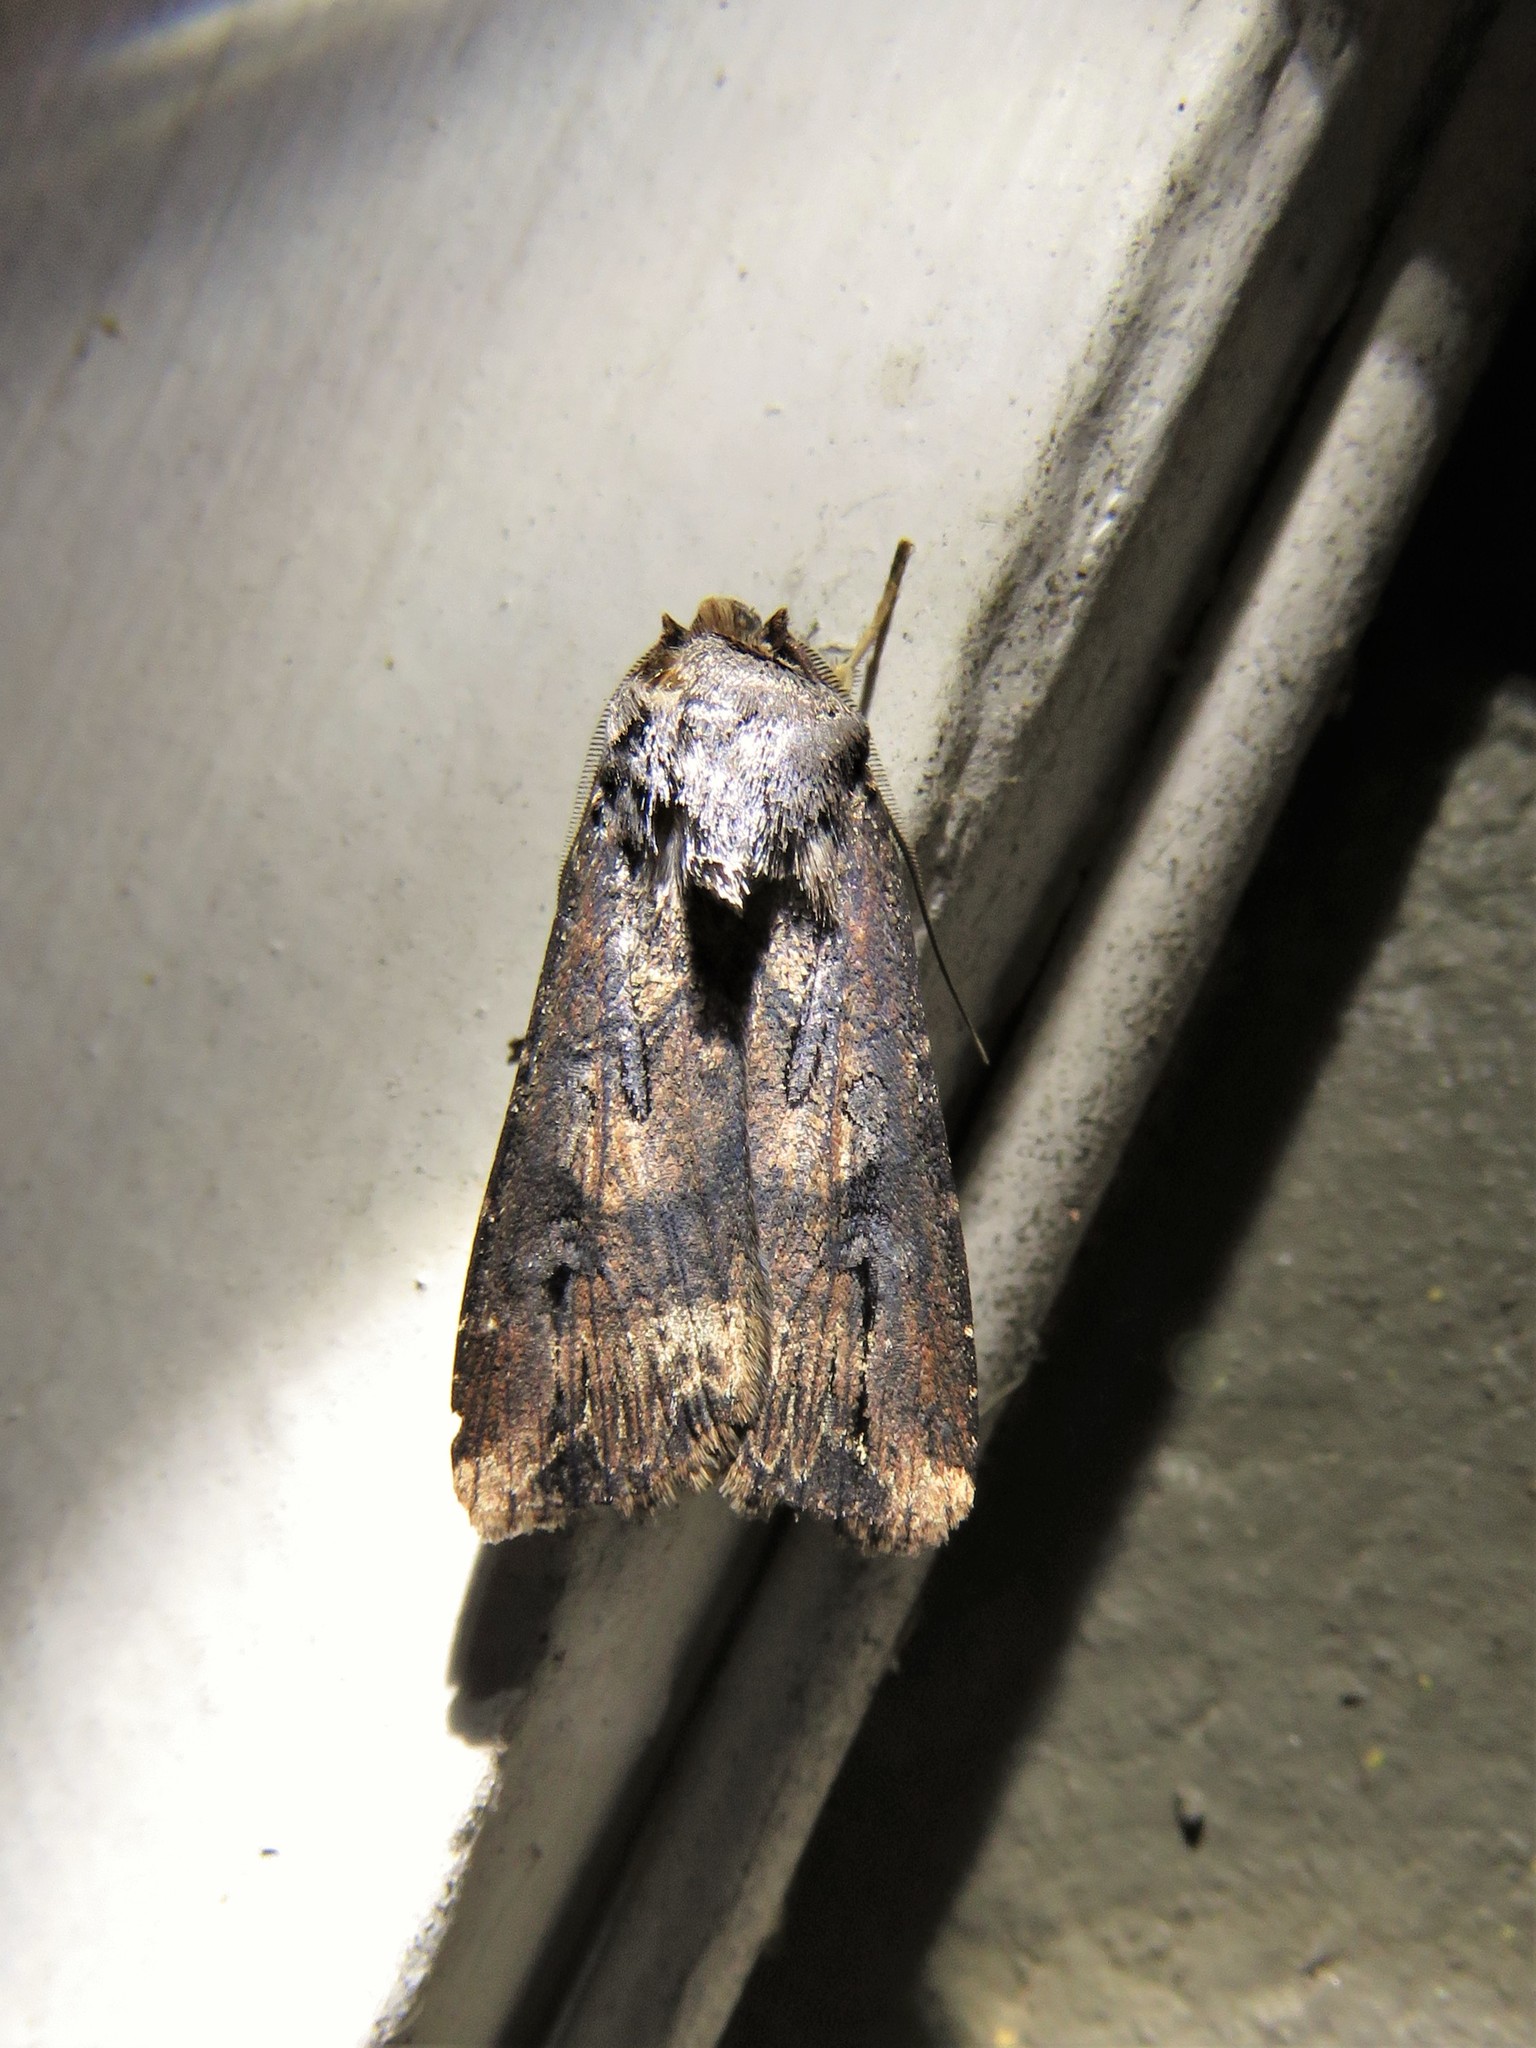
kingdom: Animalia
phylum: Arthropoda
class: Insecta
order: Lepidoptera
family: Noctuidae
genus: Agrotis
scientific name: Agrotis ipsilon
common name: Dark sword-grass
